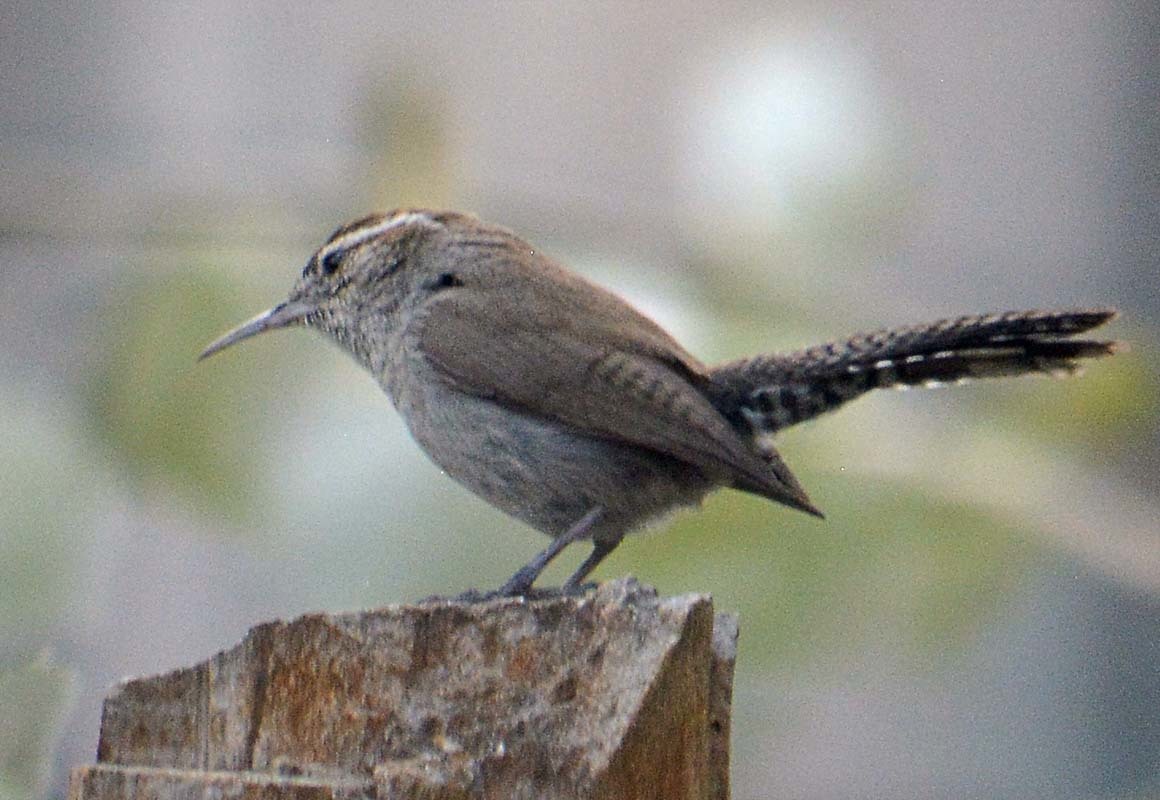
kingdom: Animalia
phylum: Chordata
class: Aves
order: Passeriformes
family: Troglodytidae
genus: Thryomanes
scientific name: Thryomanes bewickii
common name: Bewick's wren
